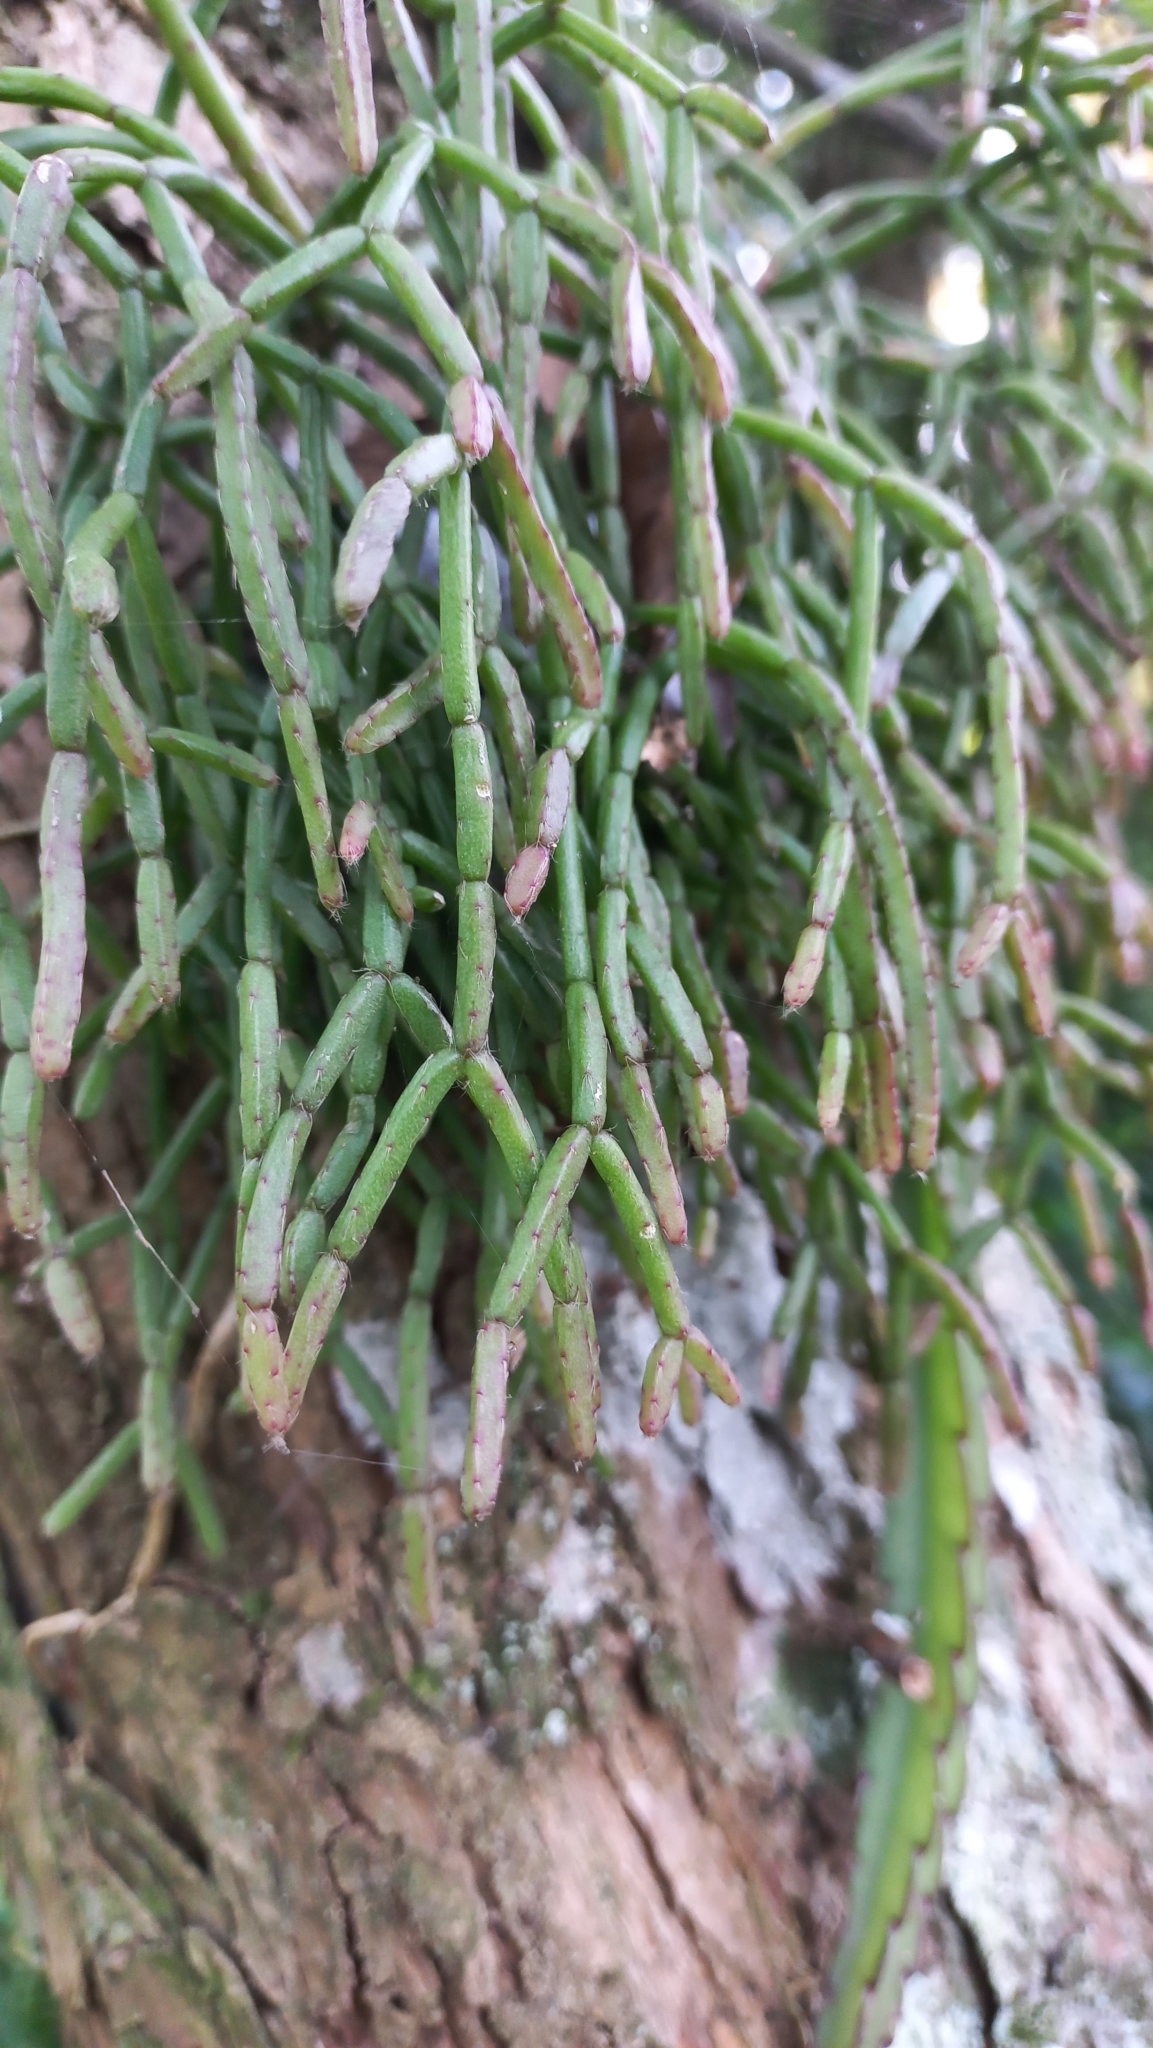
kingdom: Plantae
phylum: Tracheophyta
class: Magnoliopsida
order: Caryophyllales
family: Cactaceae
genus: Rhipsalis
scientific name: Rhipsalis teres
